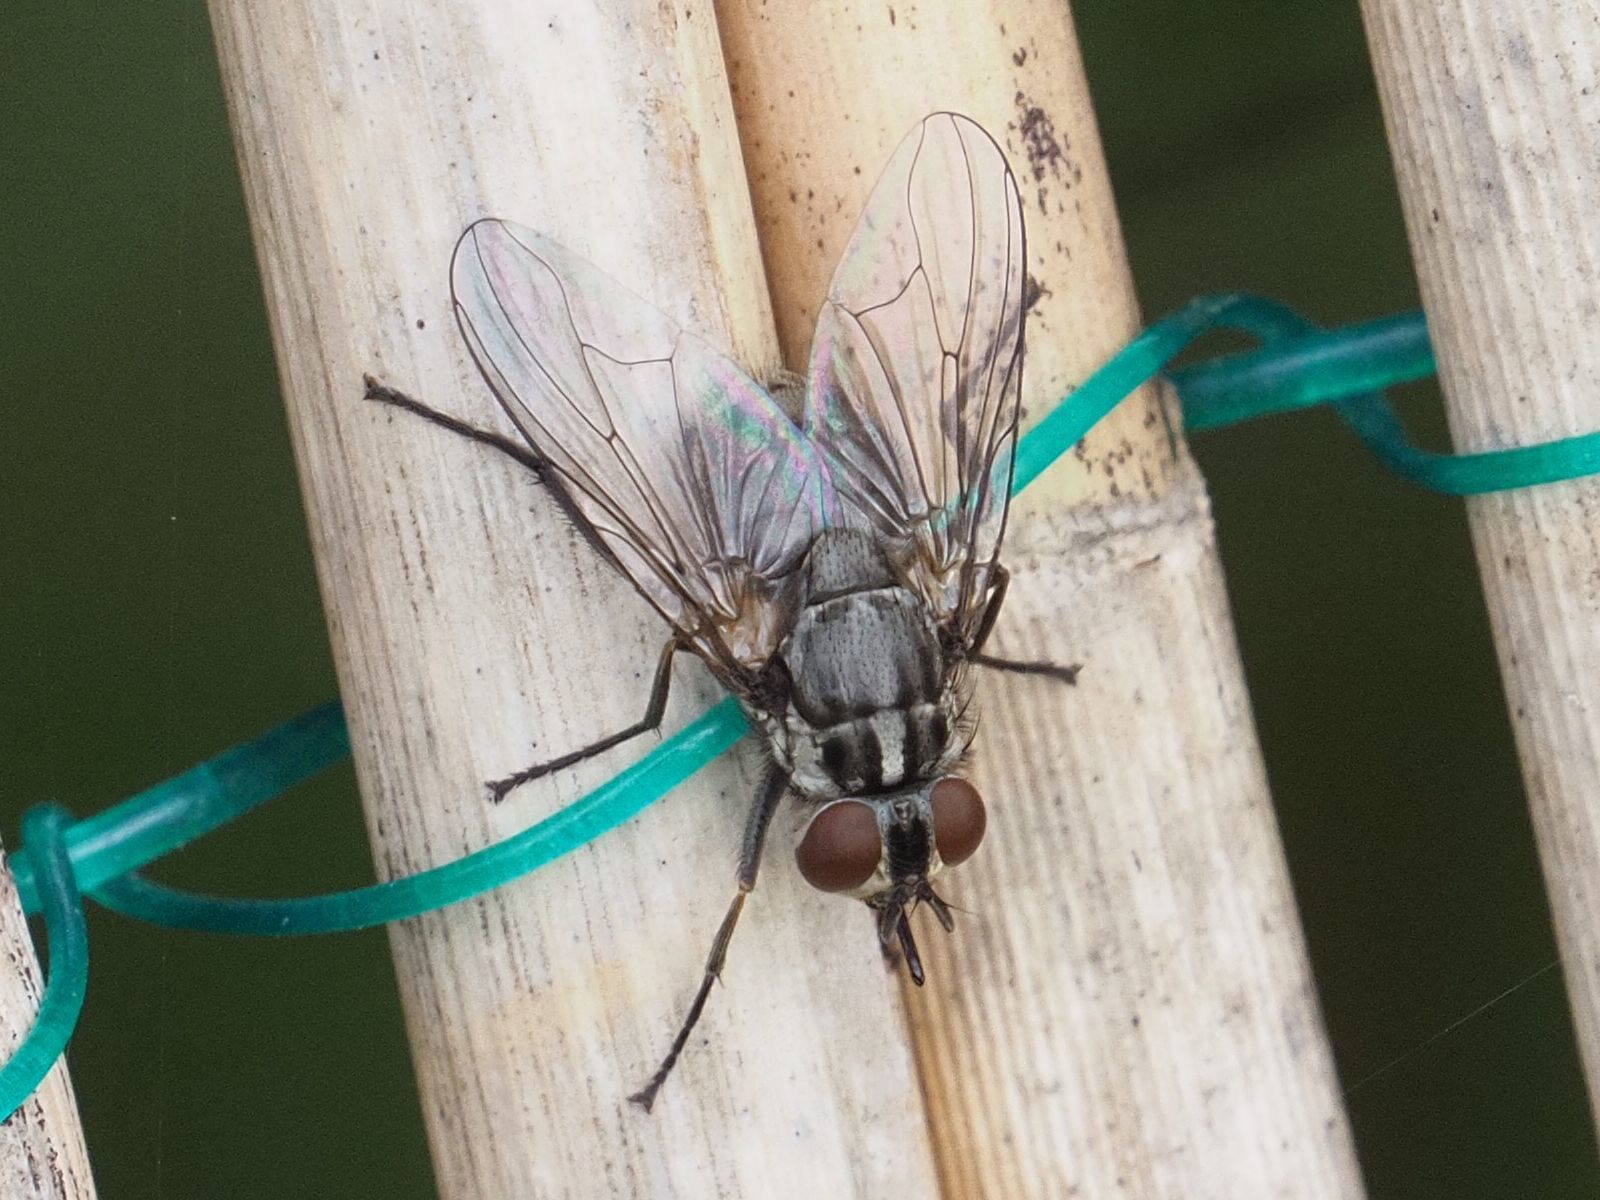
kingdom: Animalia
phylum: Arthropoda
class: Insecta
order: Diptera
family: Muscidae
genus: Stomoxys
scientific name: Stomoxys calcitrans
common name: Stable fly
